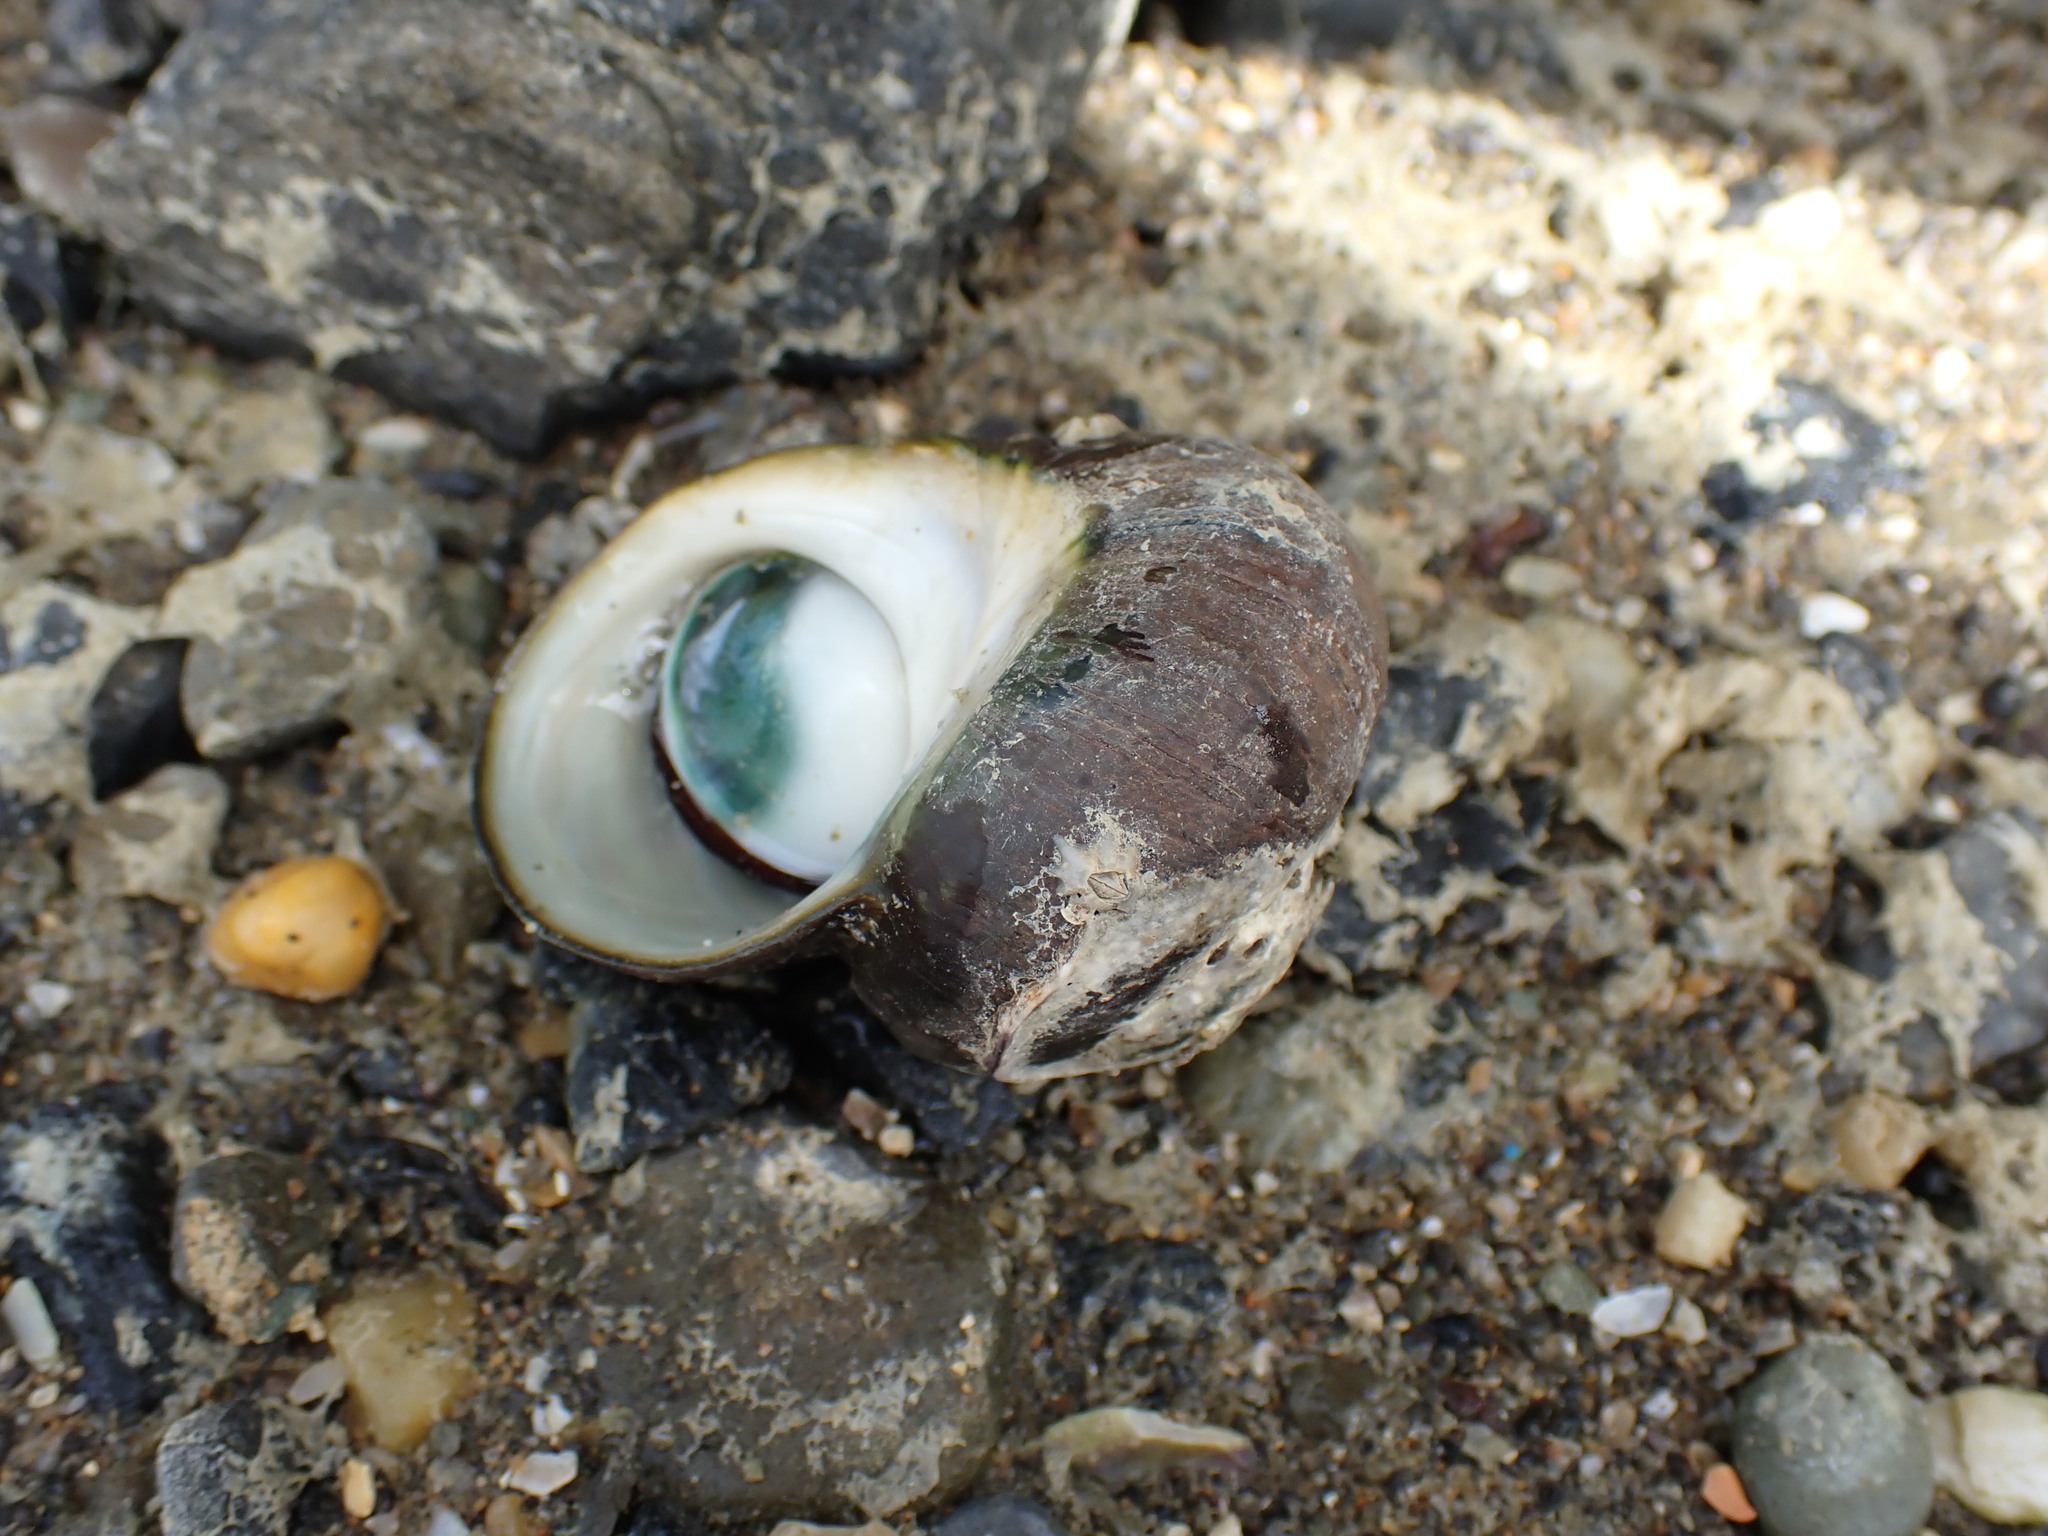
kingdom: Animalia
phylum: Mollusca
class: Gastropoda
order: Trochida
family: Turbinidae
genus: Lunella
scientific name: Lunella smaragda
